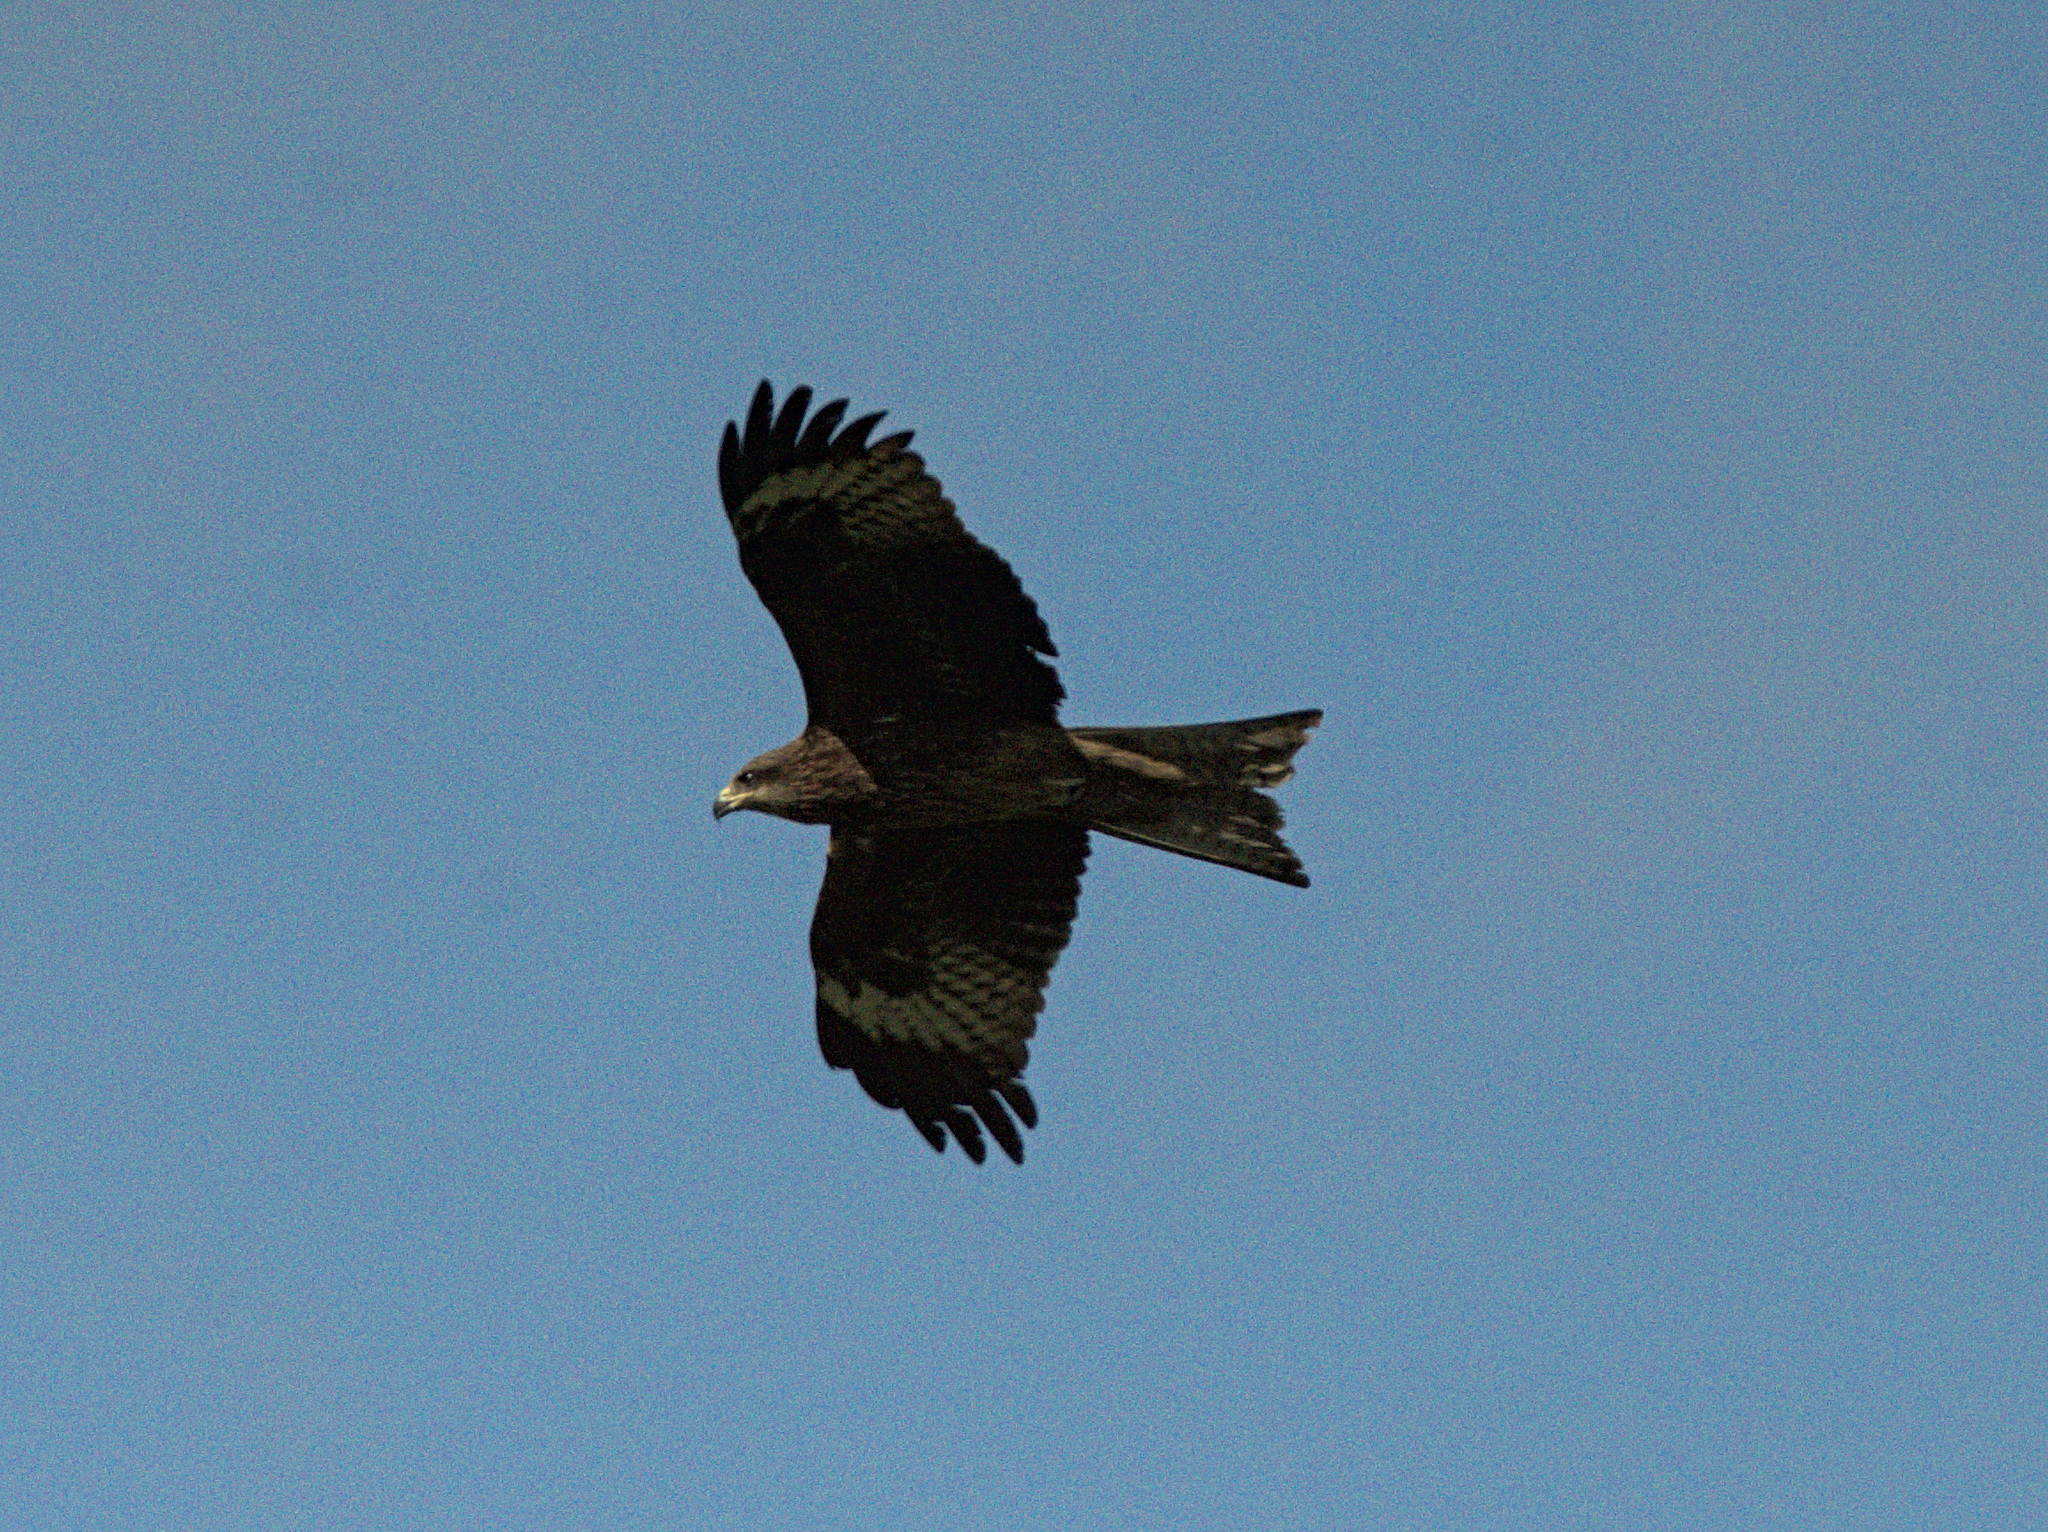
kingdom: Animalia
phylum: Chordata
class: Aves
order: Accipitriformes
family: Accipitridae
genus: Milvus
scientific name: Milvus migrans
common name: Black kite
